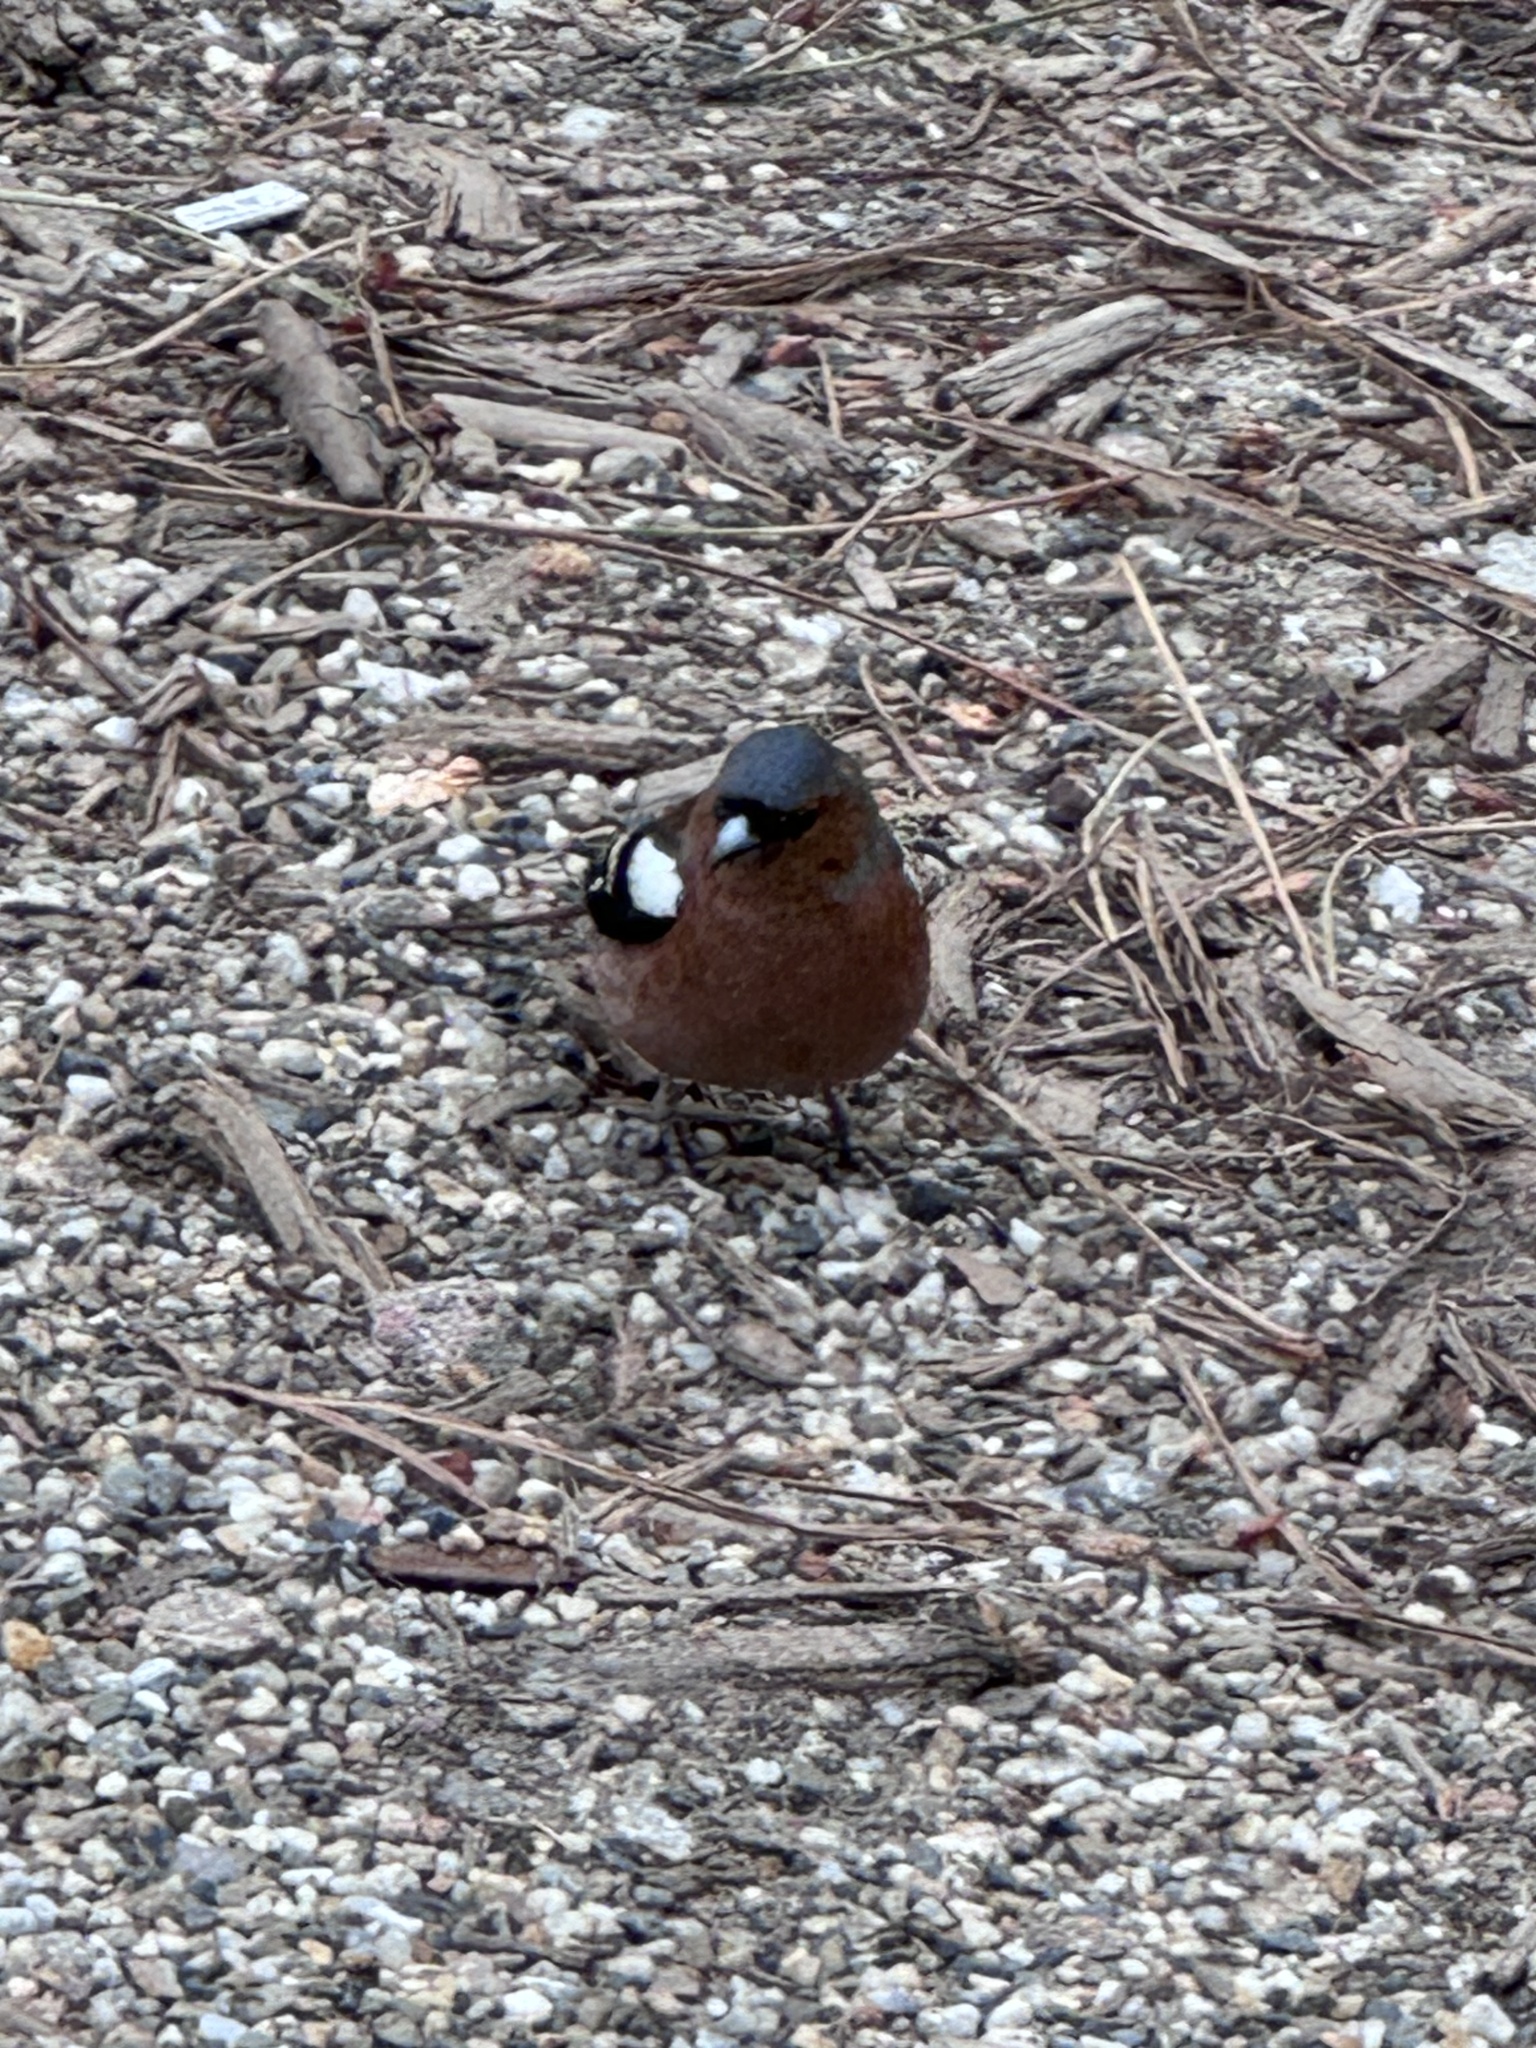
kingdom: Animalia
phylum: Chordata
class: Aves
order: Passeriformes
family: Fringillidae
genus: Fringilla
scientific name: Fringilla coelebs
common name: Common chaffinch
